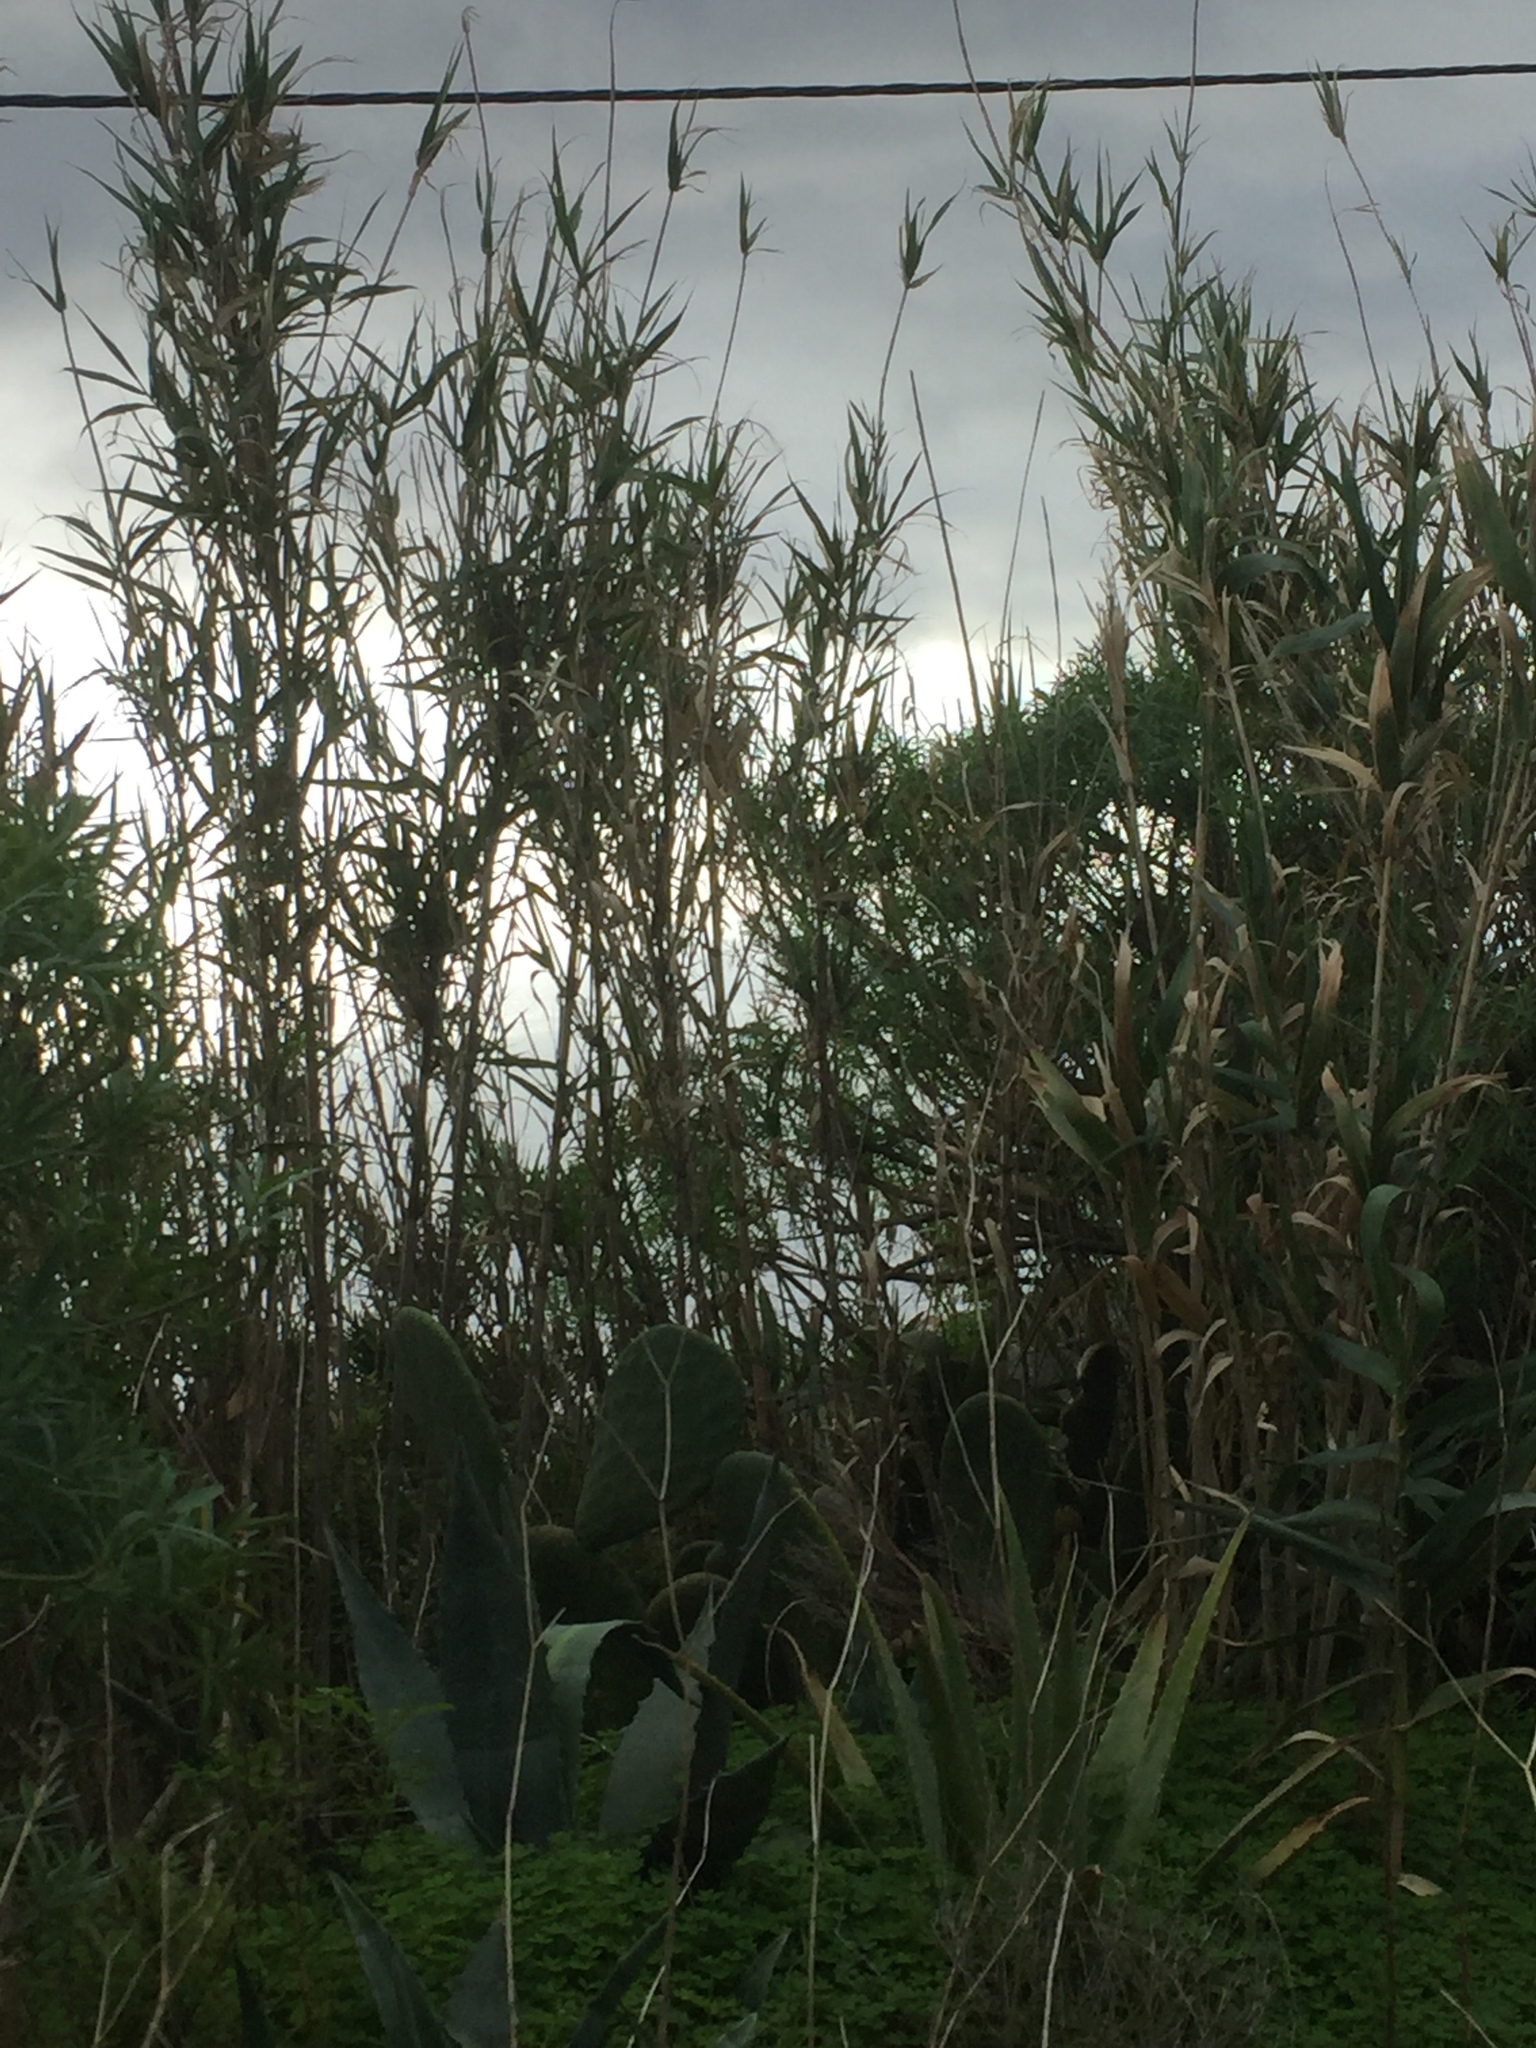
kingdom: Plantae
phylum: Tracheophyta
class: Liliopsida
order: Poales
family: Poaceae
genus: Arundo
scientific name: Arundo donax
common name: Giant reed
